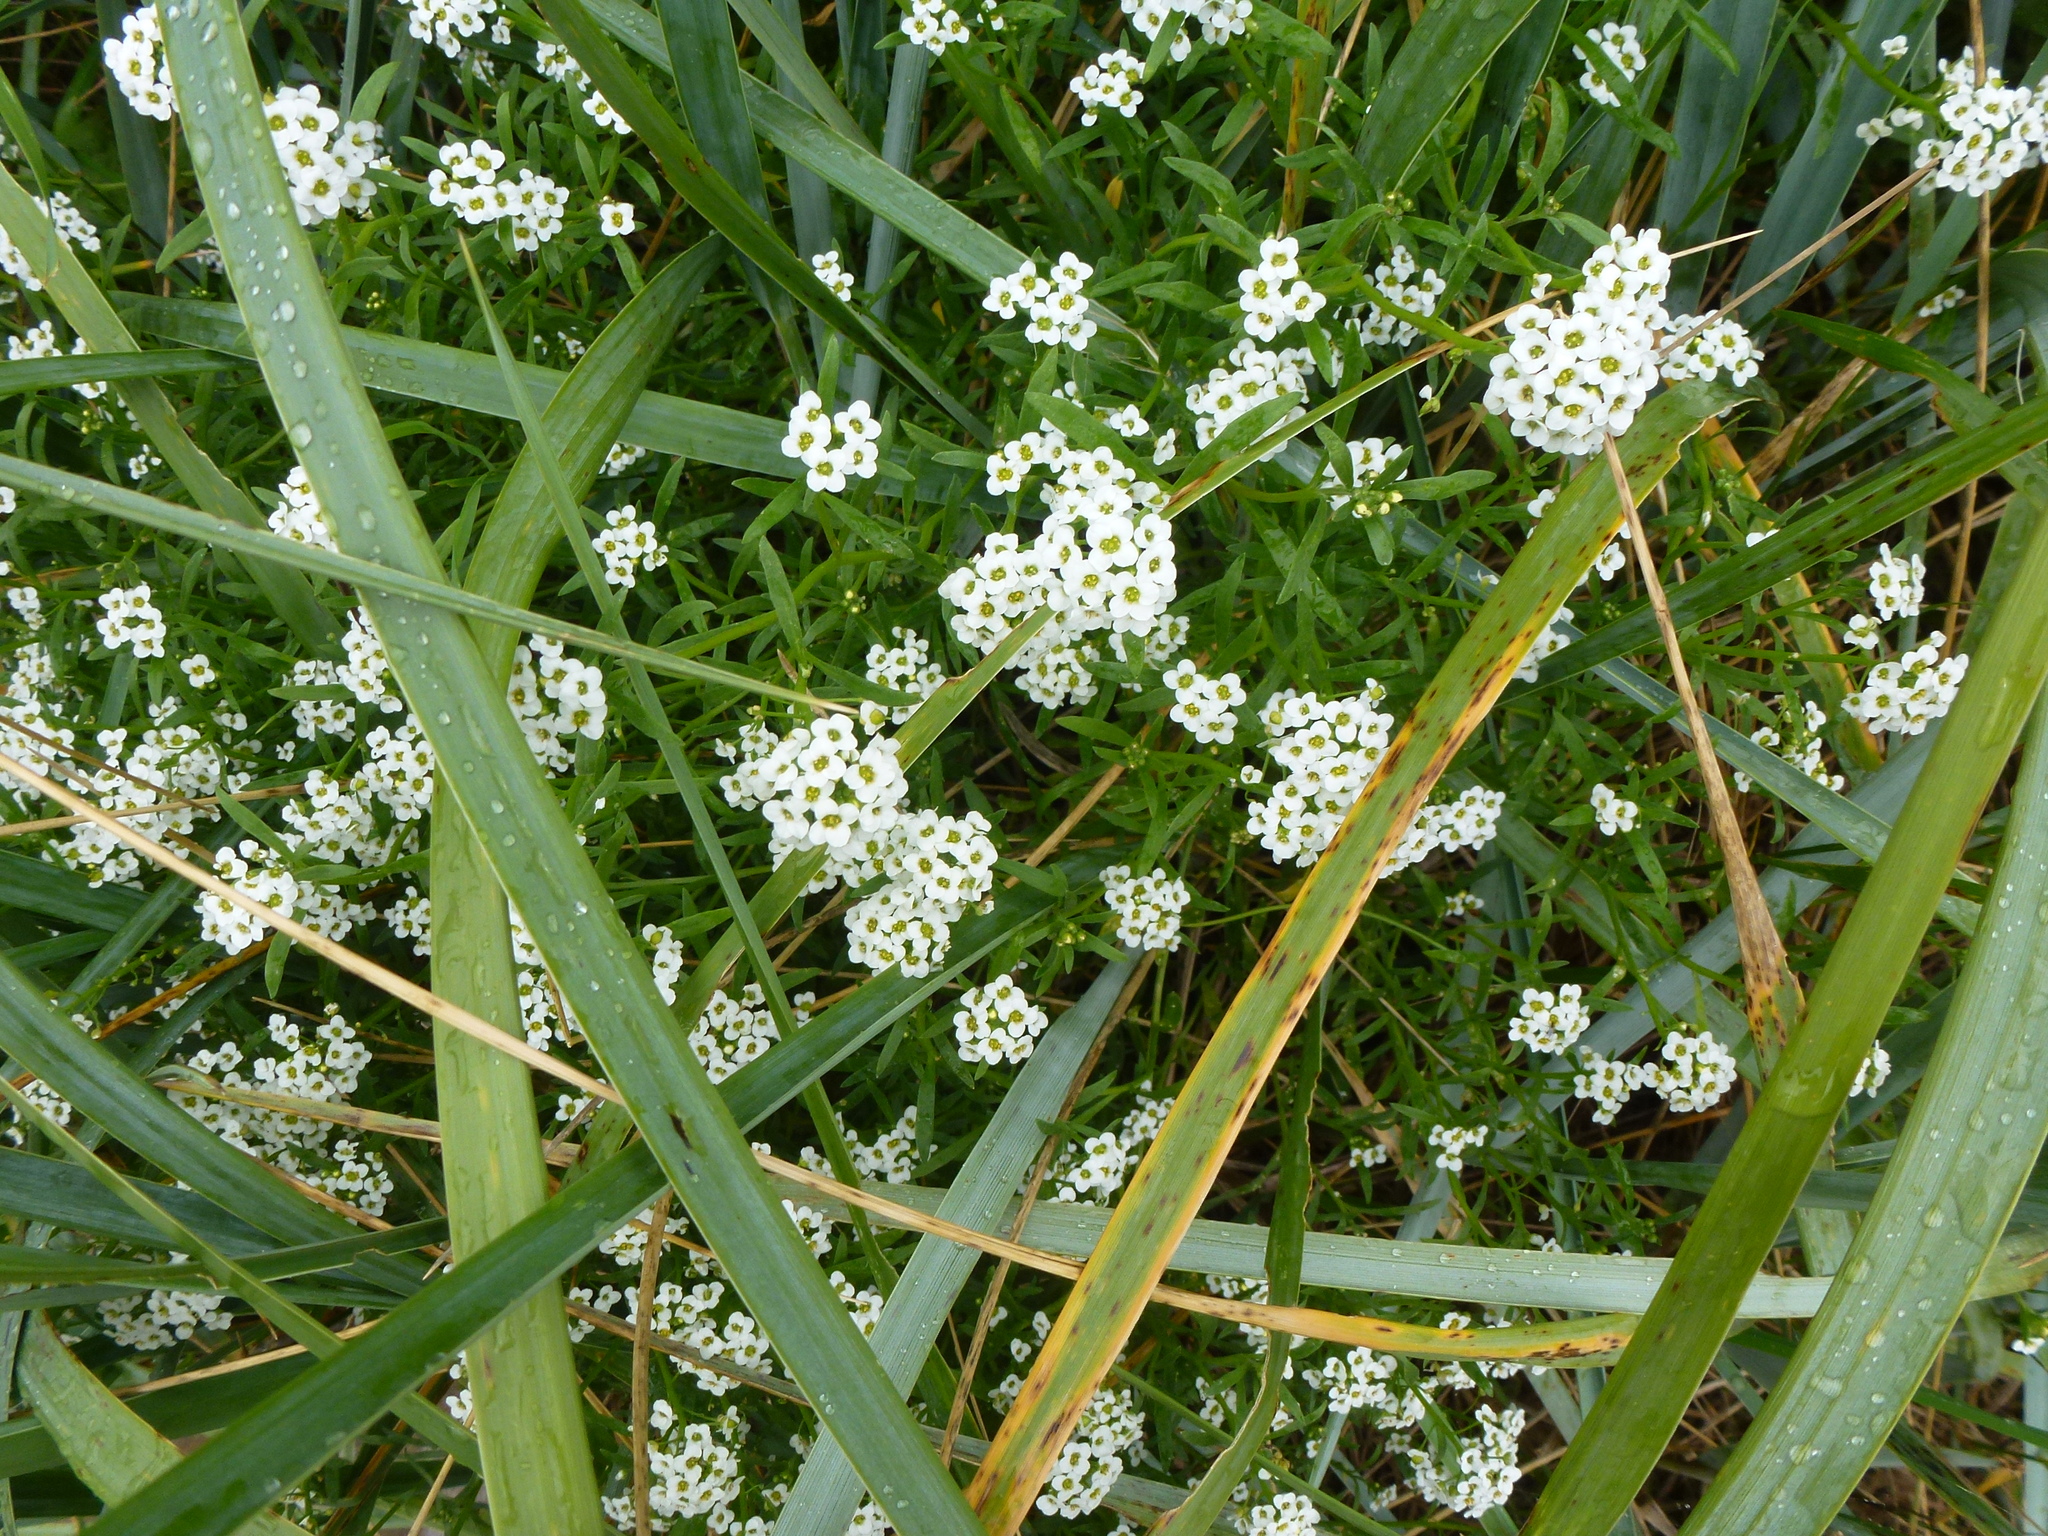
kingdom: Plantae
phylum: Tracheophyta
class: Magnoliopsida
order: Brassicales
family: Brassicaceae
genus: Lobularia
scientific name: Lobularia maritima
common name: Sweet alison
